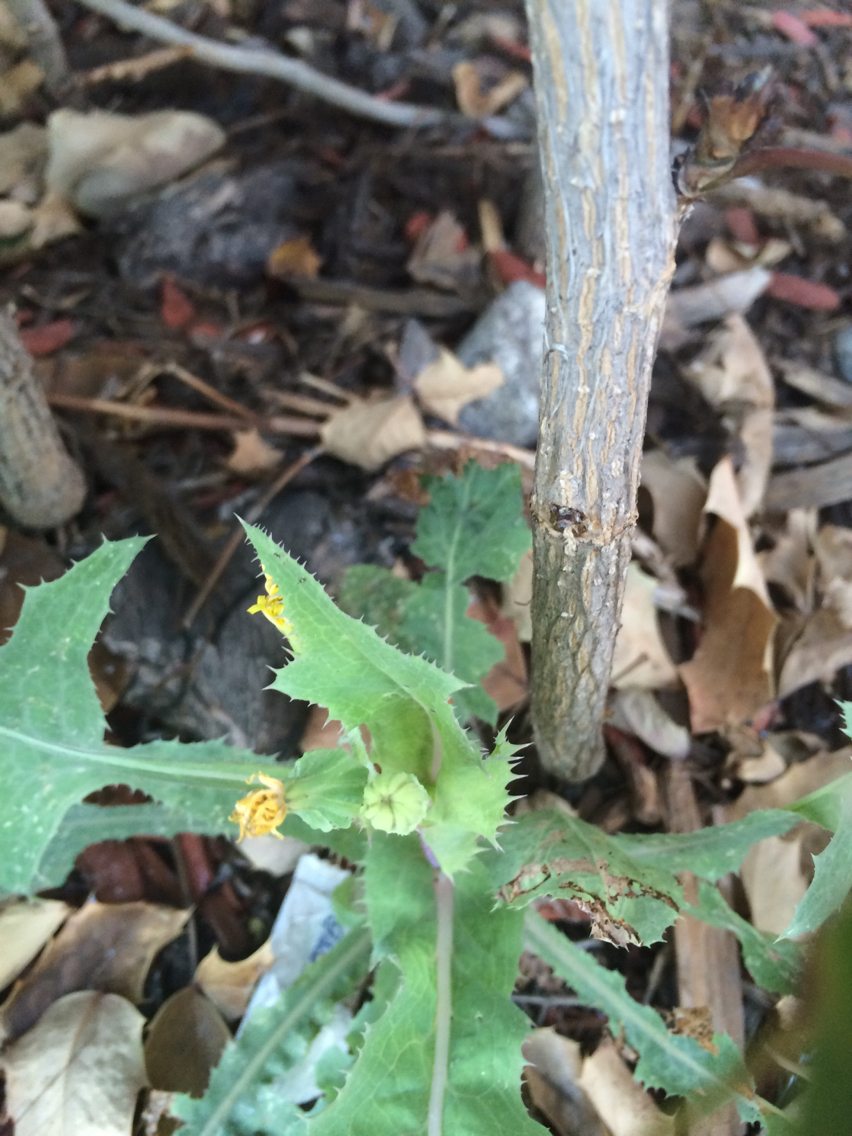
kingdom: Plantae
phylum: Tracheophyta
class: Magnoliopsida
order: Asterales
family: Asteraceae
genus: Sonchus
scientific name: Sonchus oleraceus
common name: Common sowthistle
